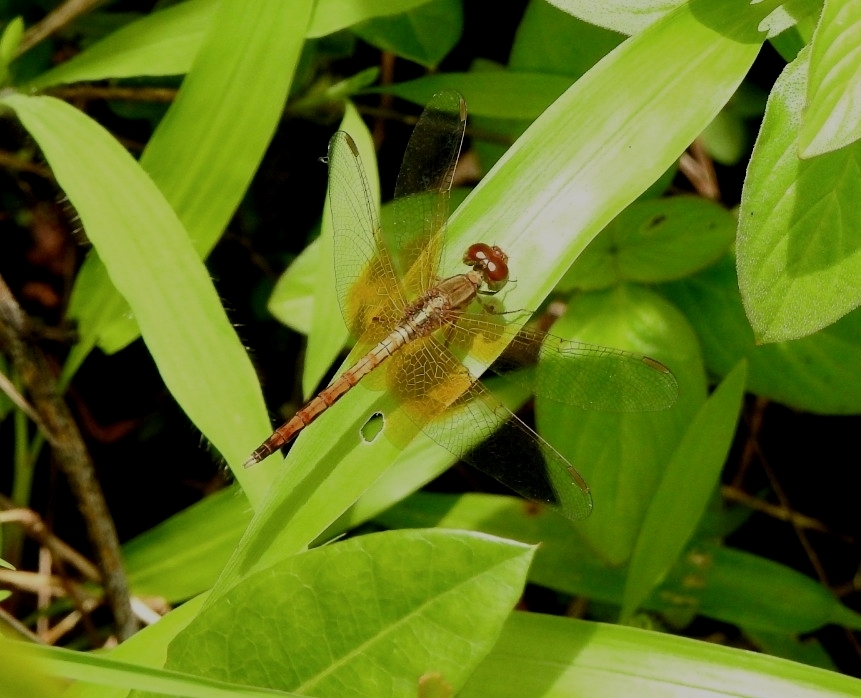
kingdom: Animalia
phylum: Arthropoda
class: Insecta
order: Odonata
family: Libellulidae
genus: Neurothemis
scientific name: Neurothemis intermedia
